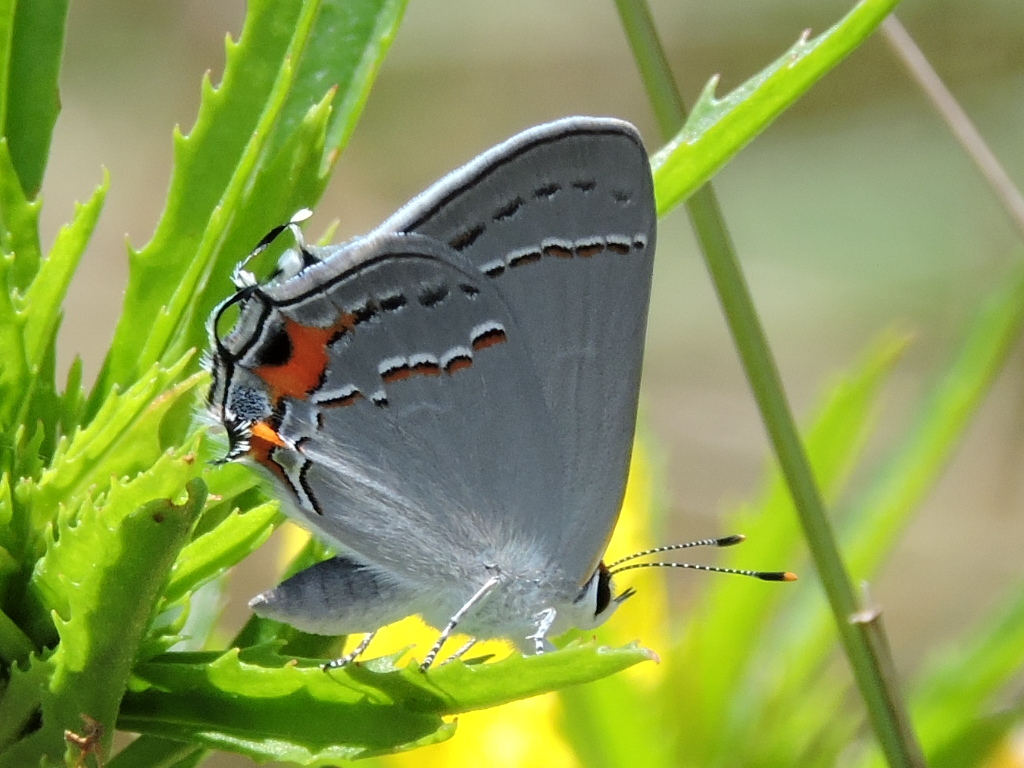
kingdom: Animalia
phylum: Arthropoda
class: Insecta
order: Lepidoptera
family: Lycaenidae
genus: Strymon
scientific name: Strymon melinus
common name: Gray hairstreak
